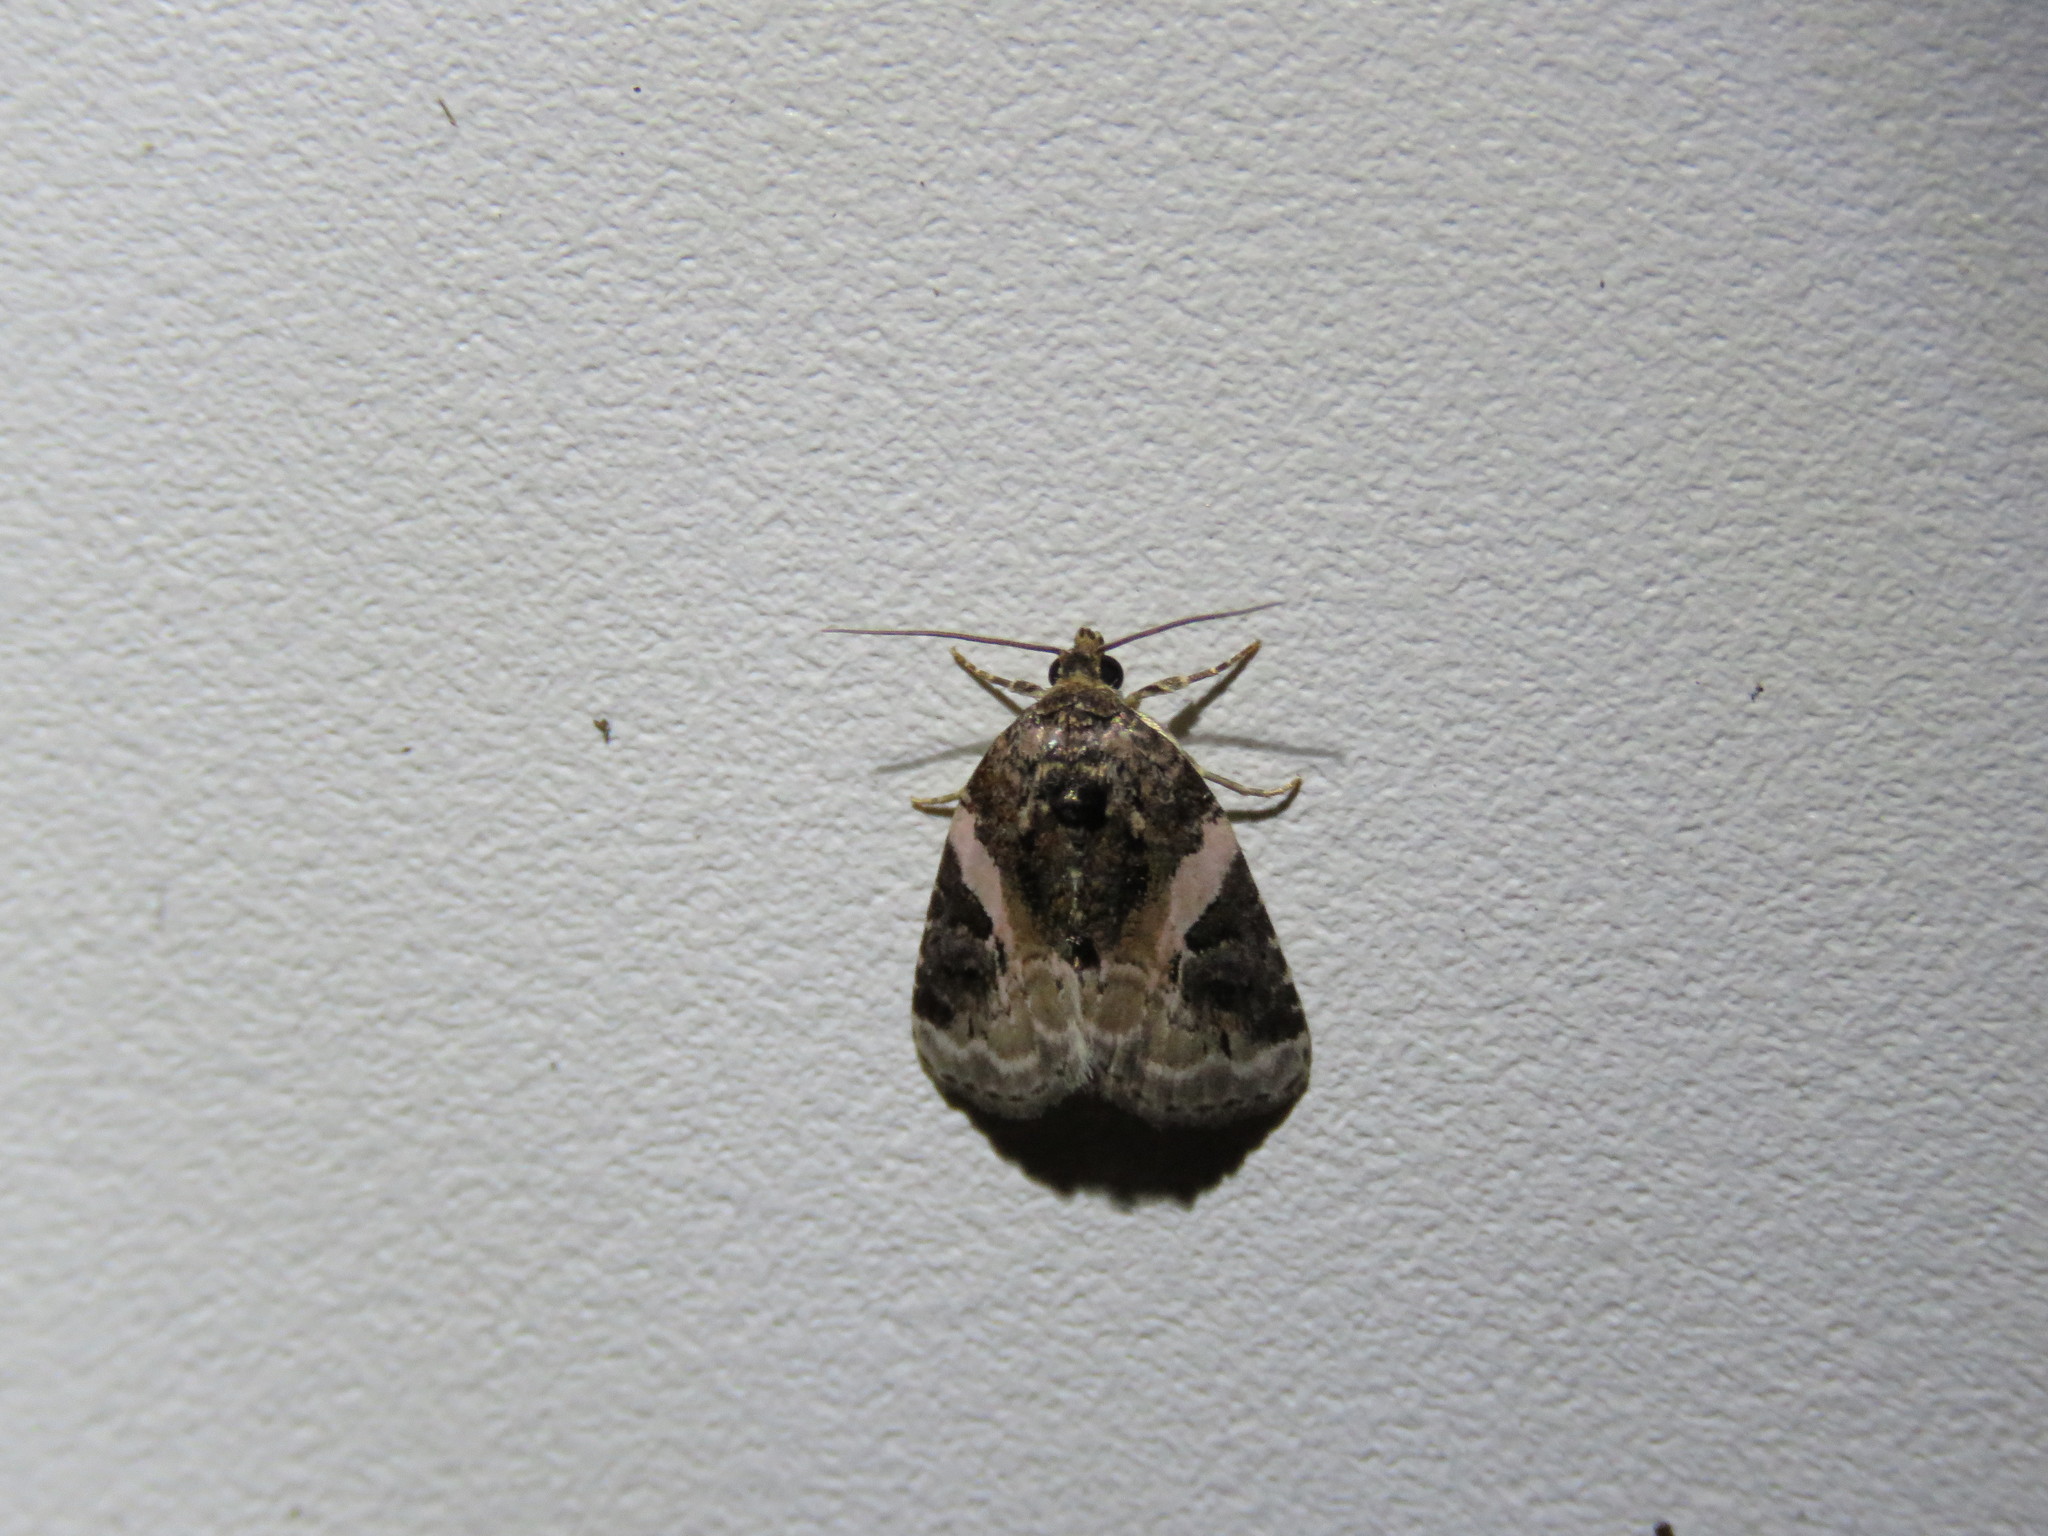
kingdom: Animalia
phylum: Arthropoda
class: Insecta
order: Lepidoptera
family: Noctuidae
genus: Pseudeustrotia
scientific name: Pseudeustrotia carneola
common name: Pink-barred lithacodia moth
